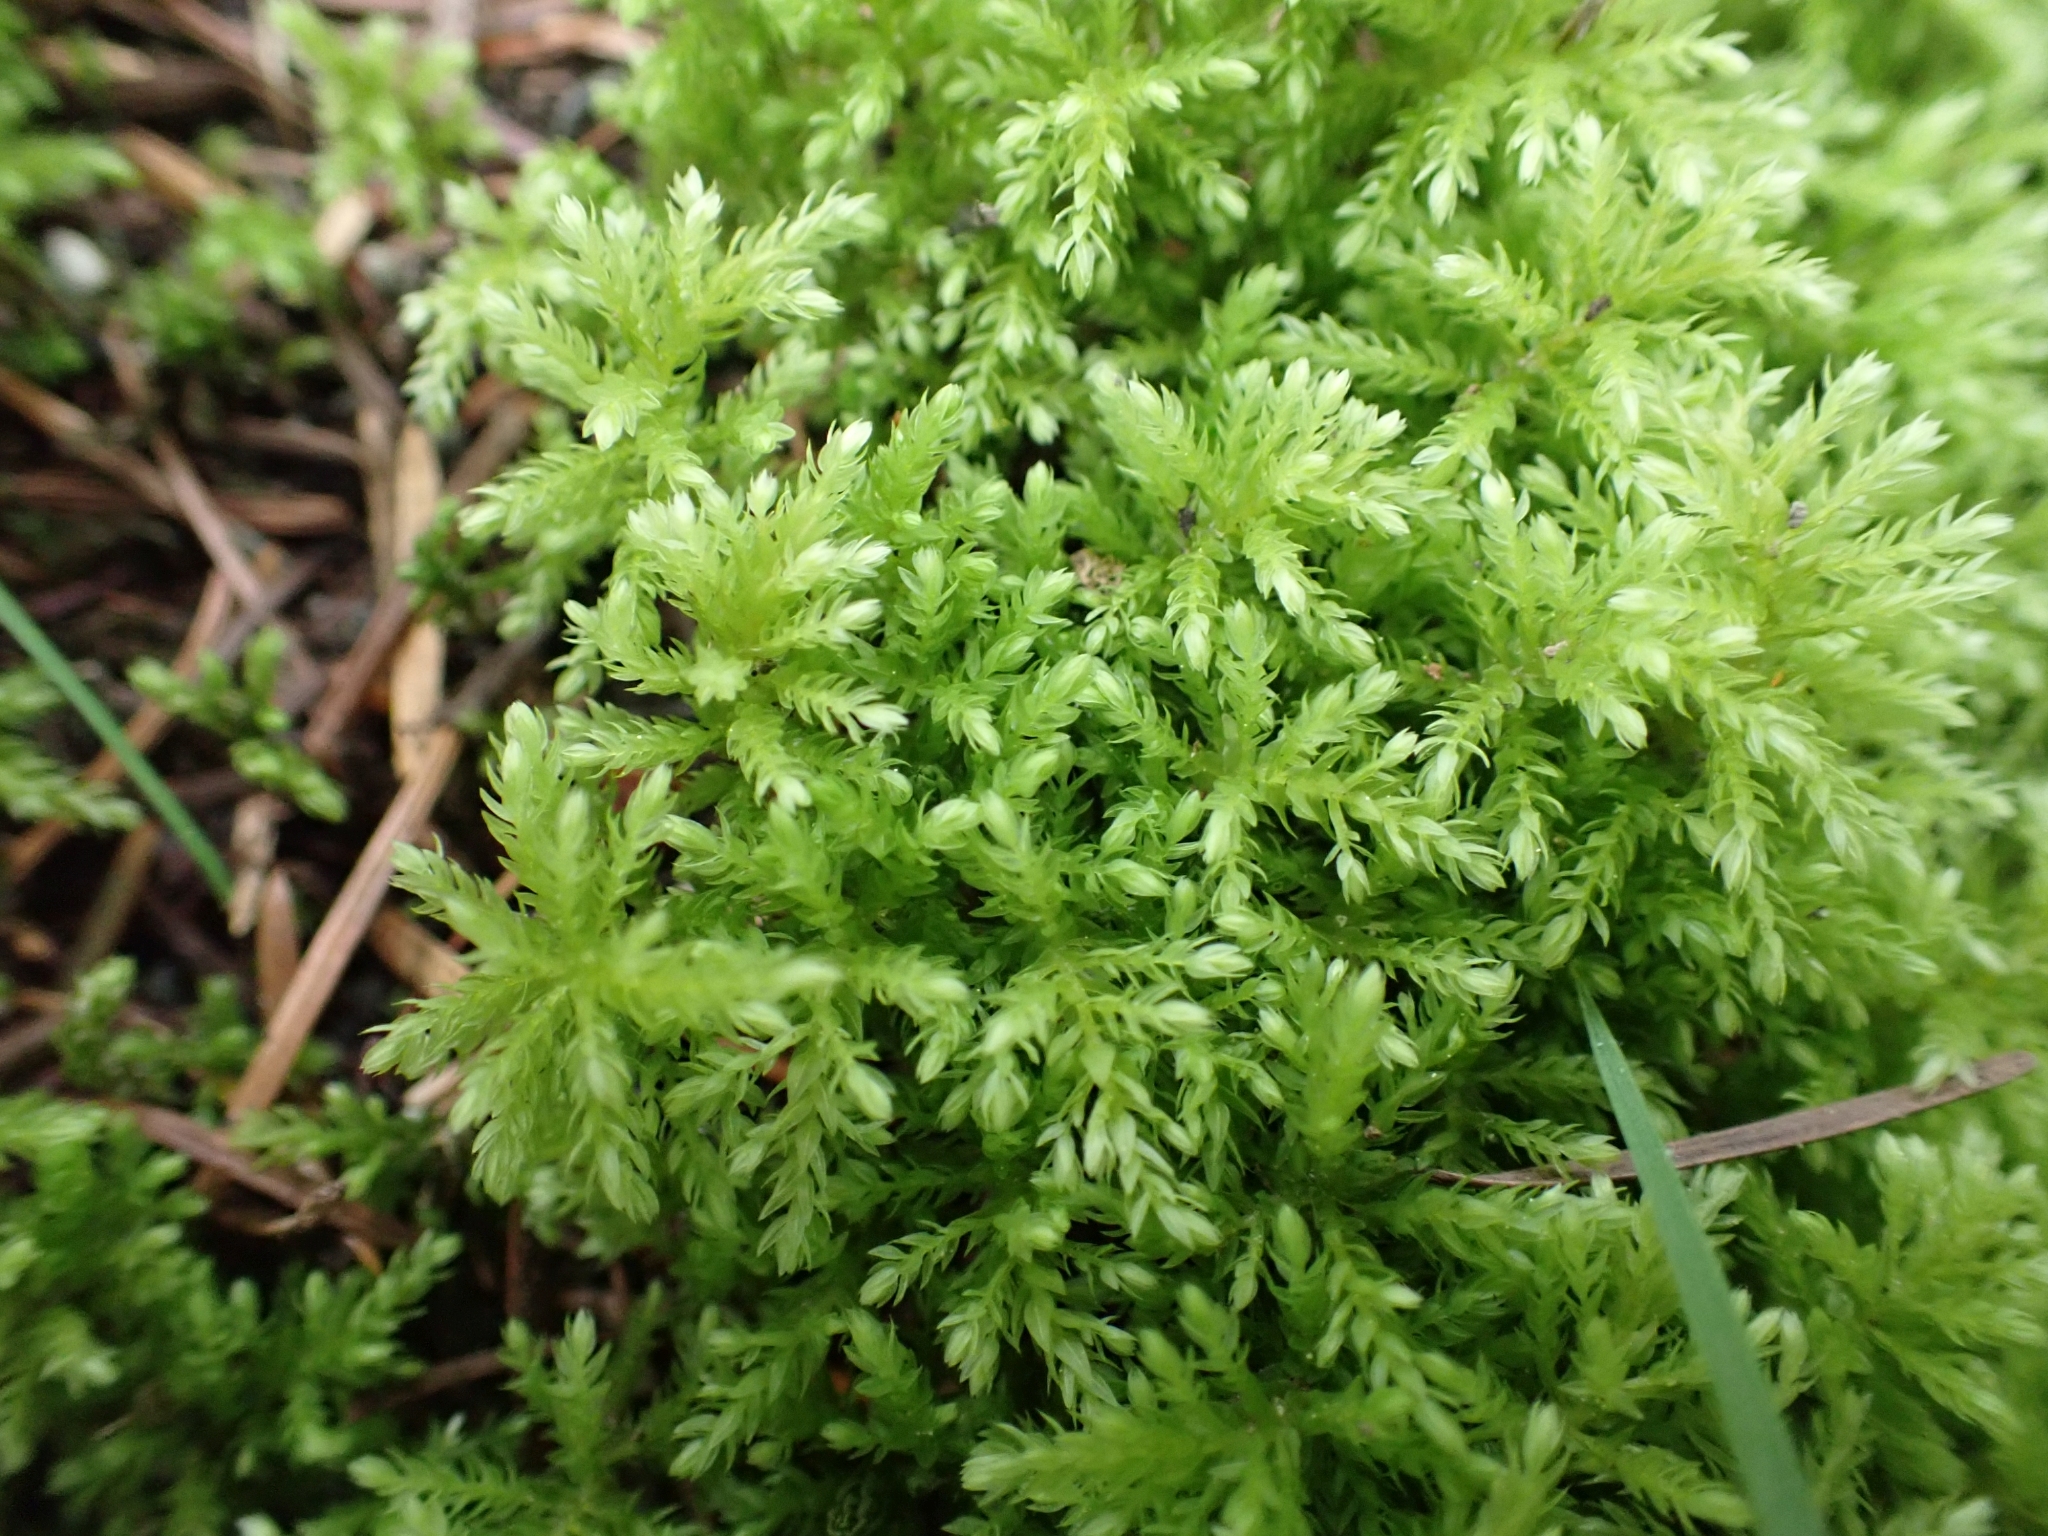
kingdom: Plantae
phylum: Bryophyta
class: Bryopsida
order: Bryales
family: Mniaceae
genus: Leucolepis
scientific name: Leucolepis acanthoneura
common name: Leucolepis umbrella moss
